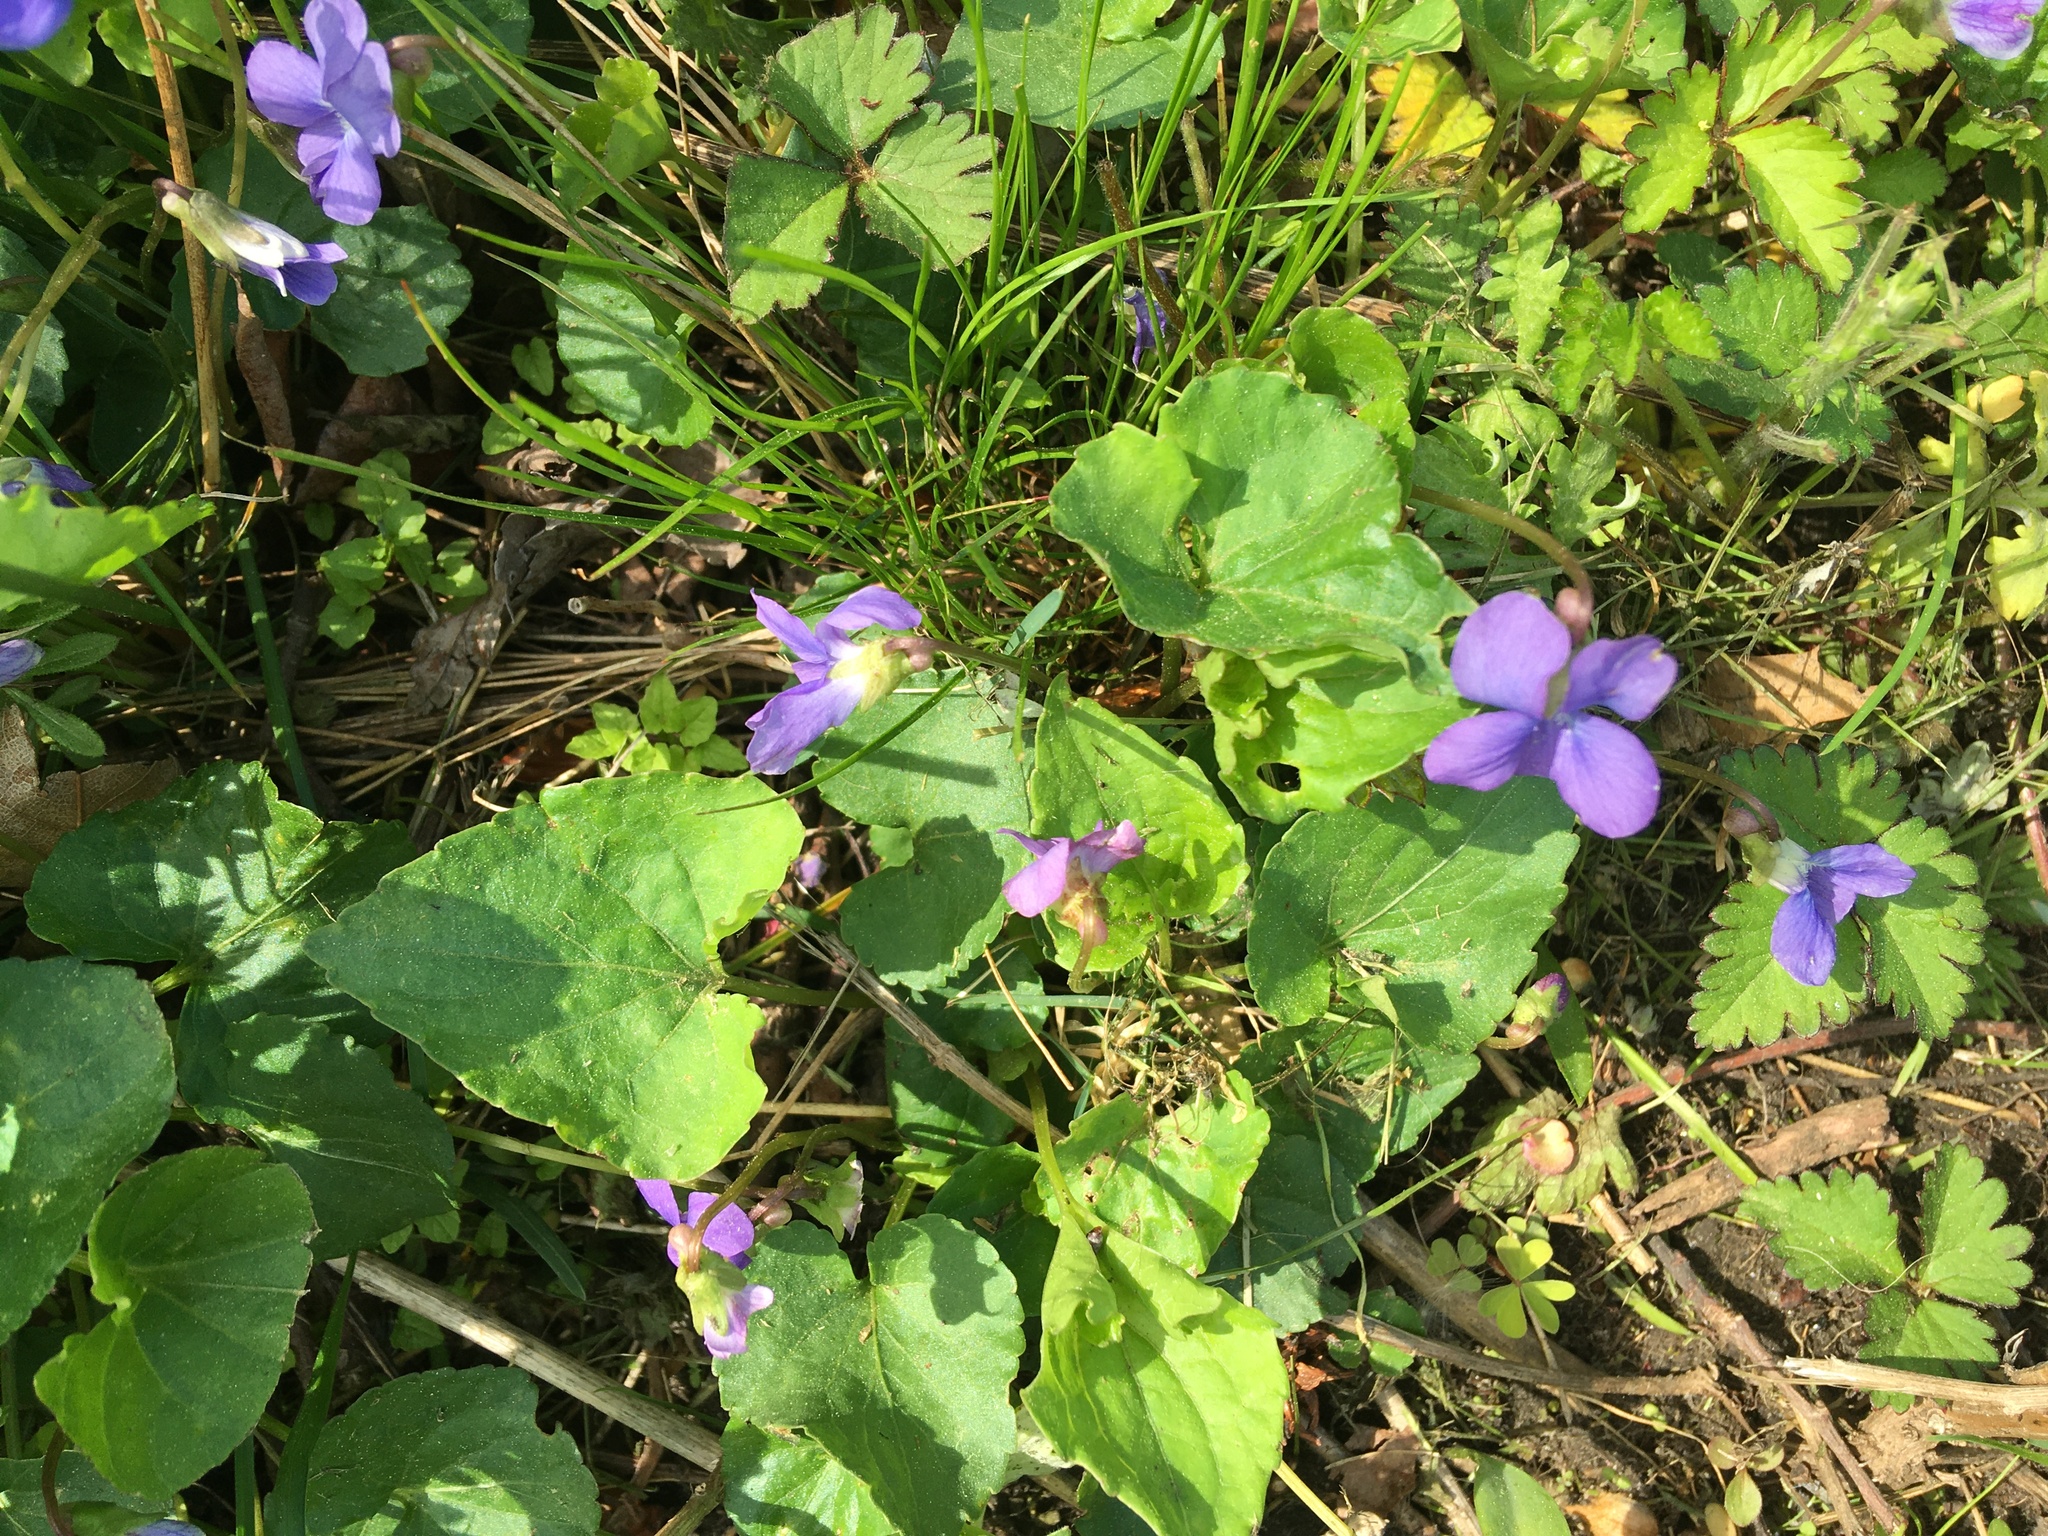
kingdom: Plantae
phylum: Tracheophyta
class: Magnoliopsida
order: Malpighiales
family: Violaceae
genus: Viola
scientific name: Viola sororia
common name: Dooryard violet
